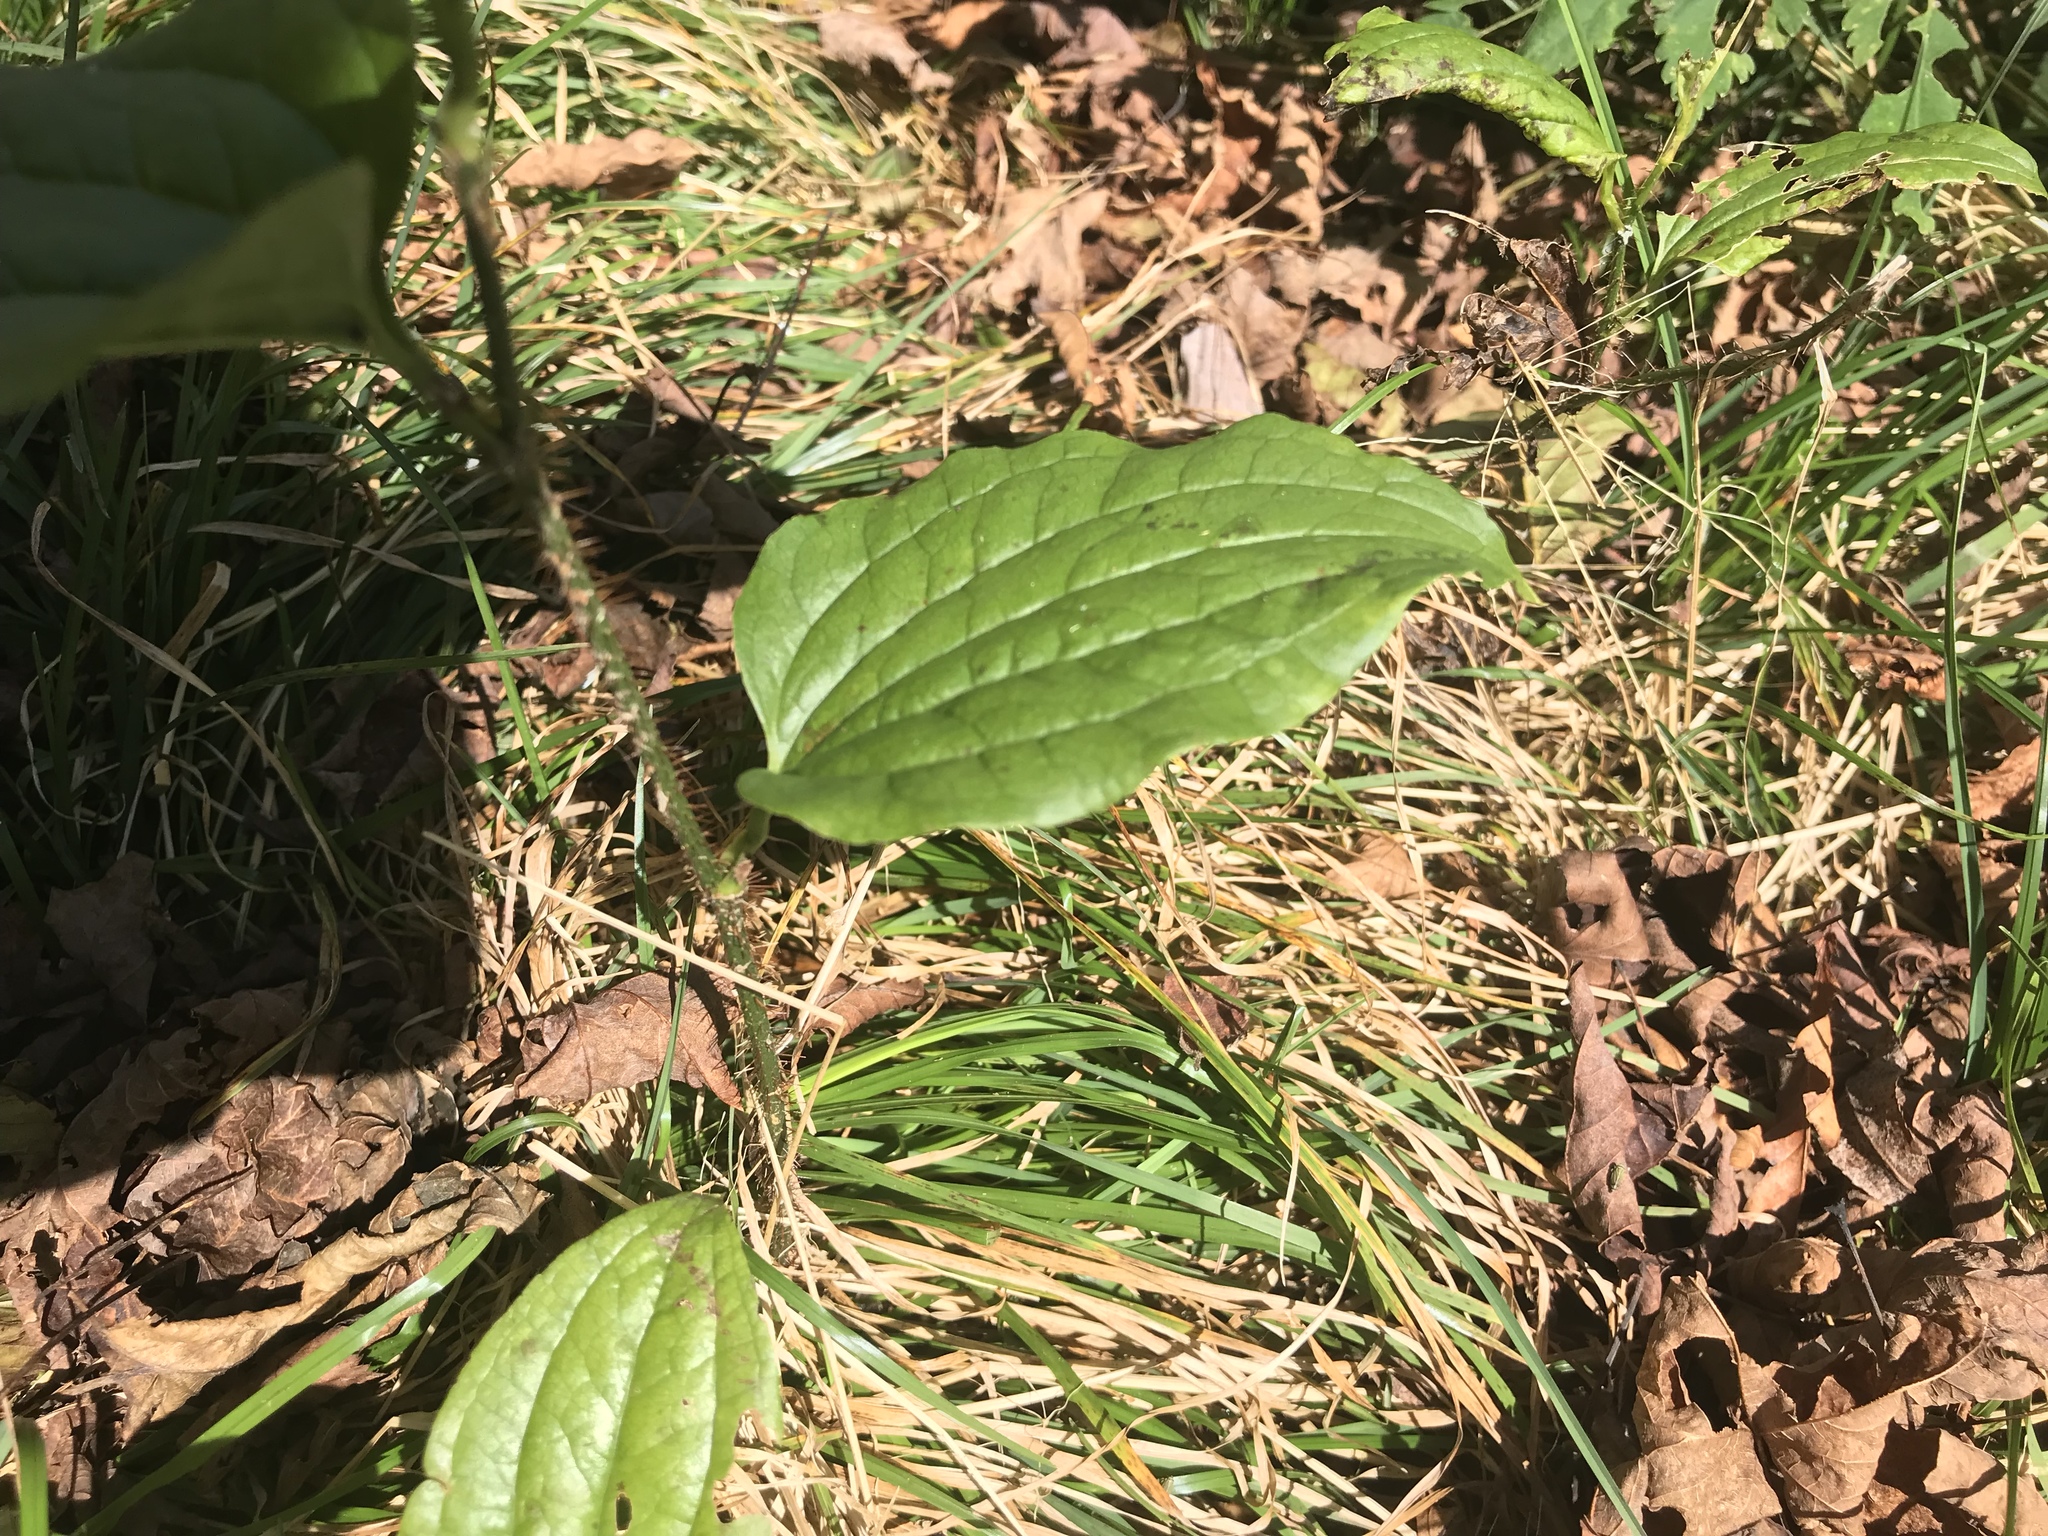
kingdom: Plantae
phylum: Tracheophyta
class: Liliopsida
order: Liliales
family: Smilacaceae
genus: Smilax
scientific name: Smilax tamnoides
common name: Hellfetter
